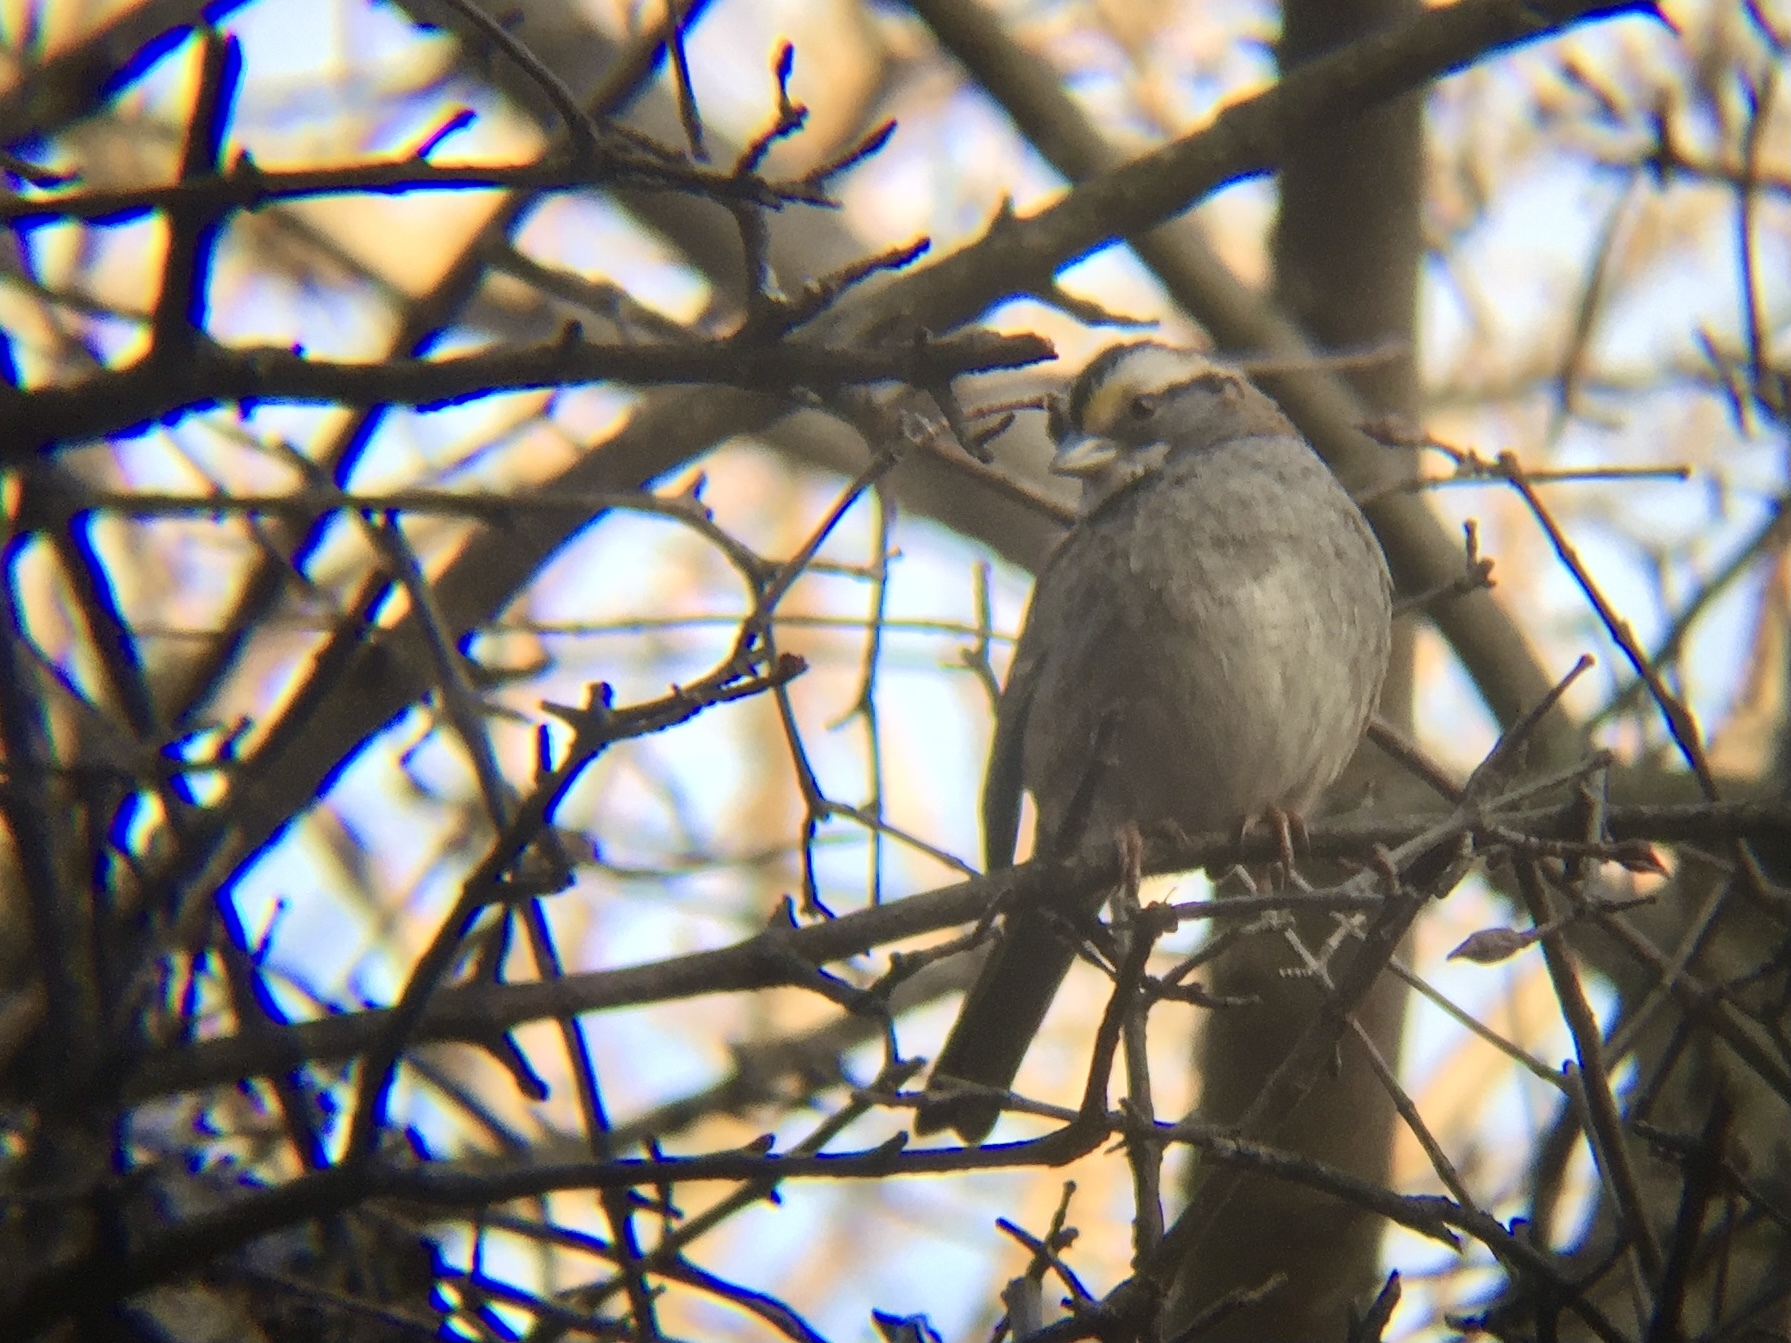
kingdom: Animalia
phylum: Chordata
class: Aves
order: Passeriformes
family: Passerellidae
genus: Zonotrichia
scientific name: Zonotrichia albicollis
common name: White-throated sparrow
